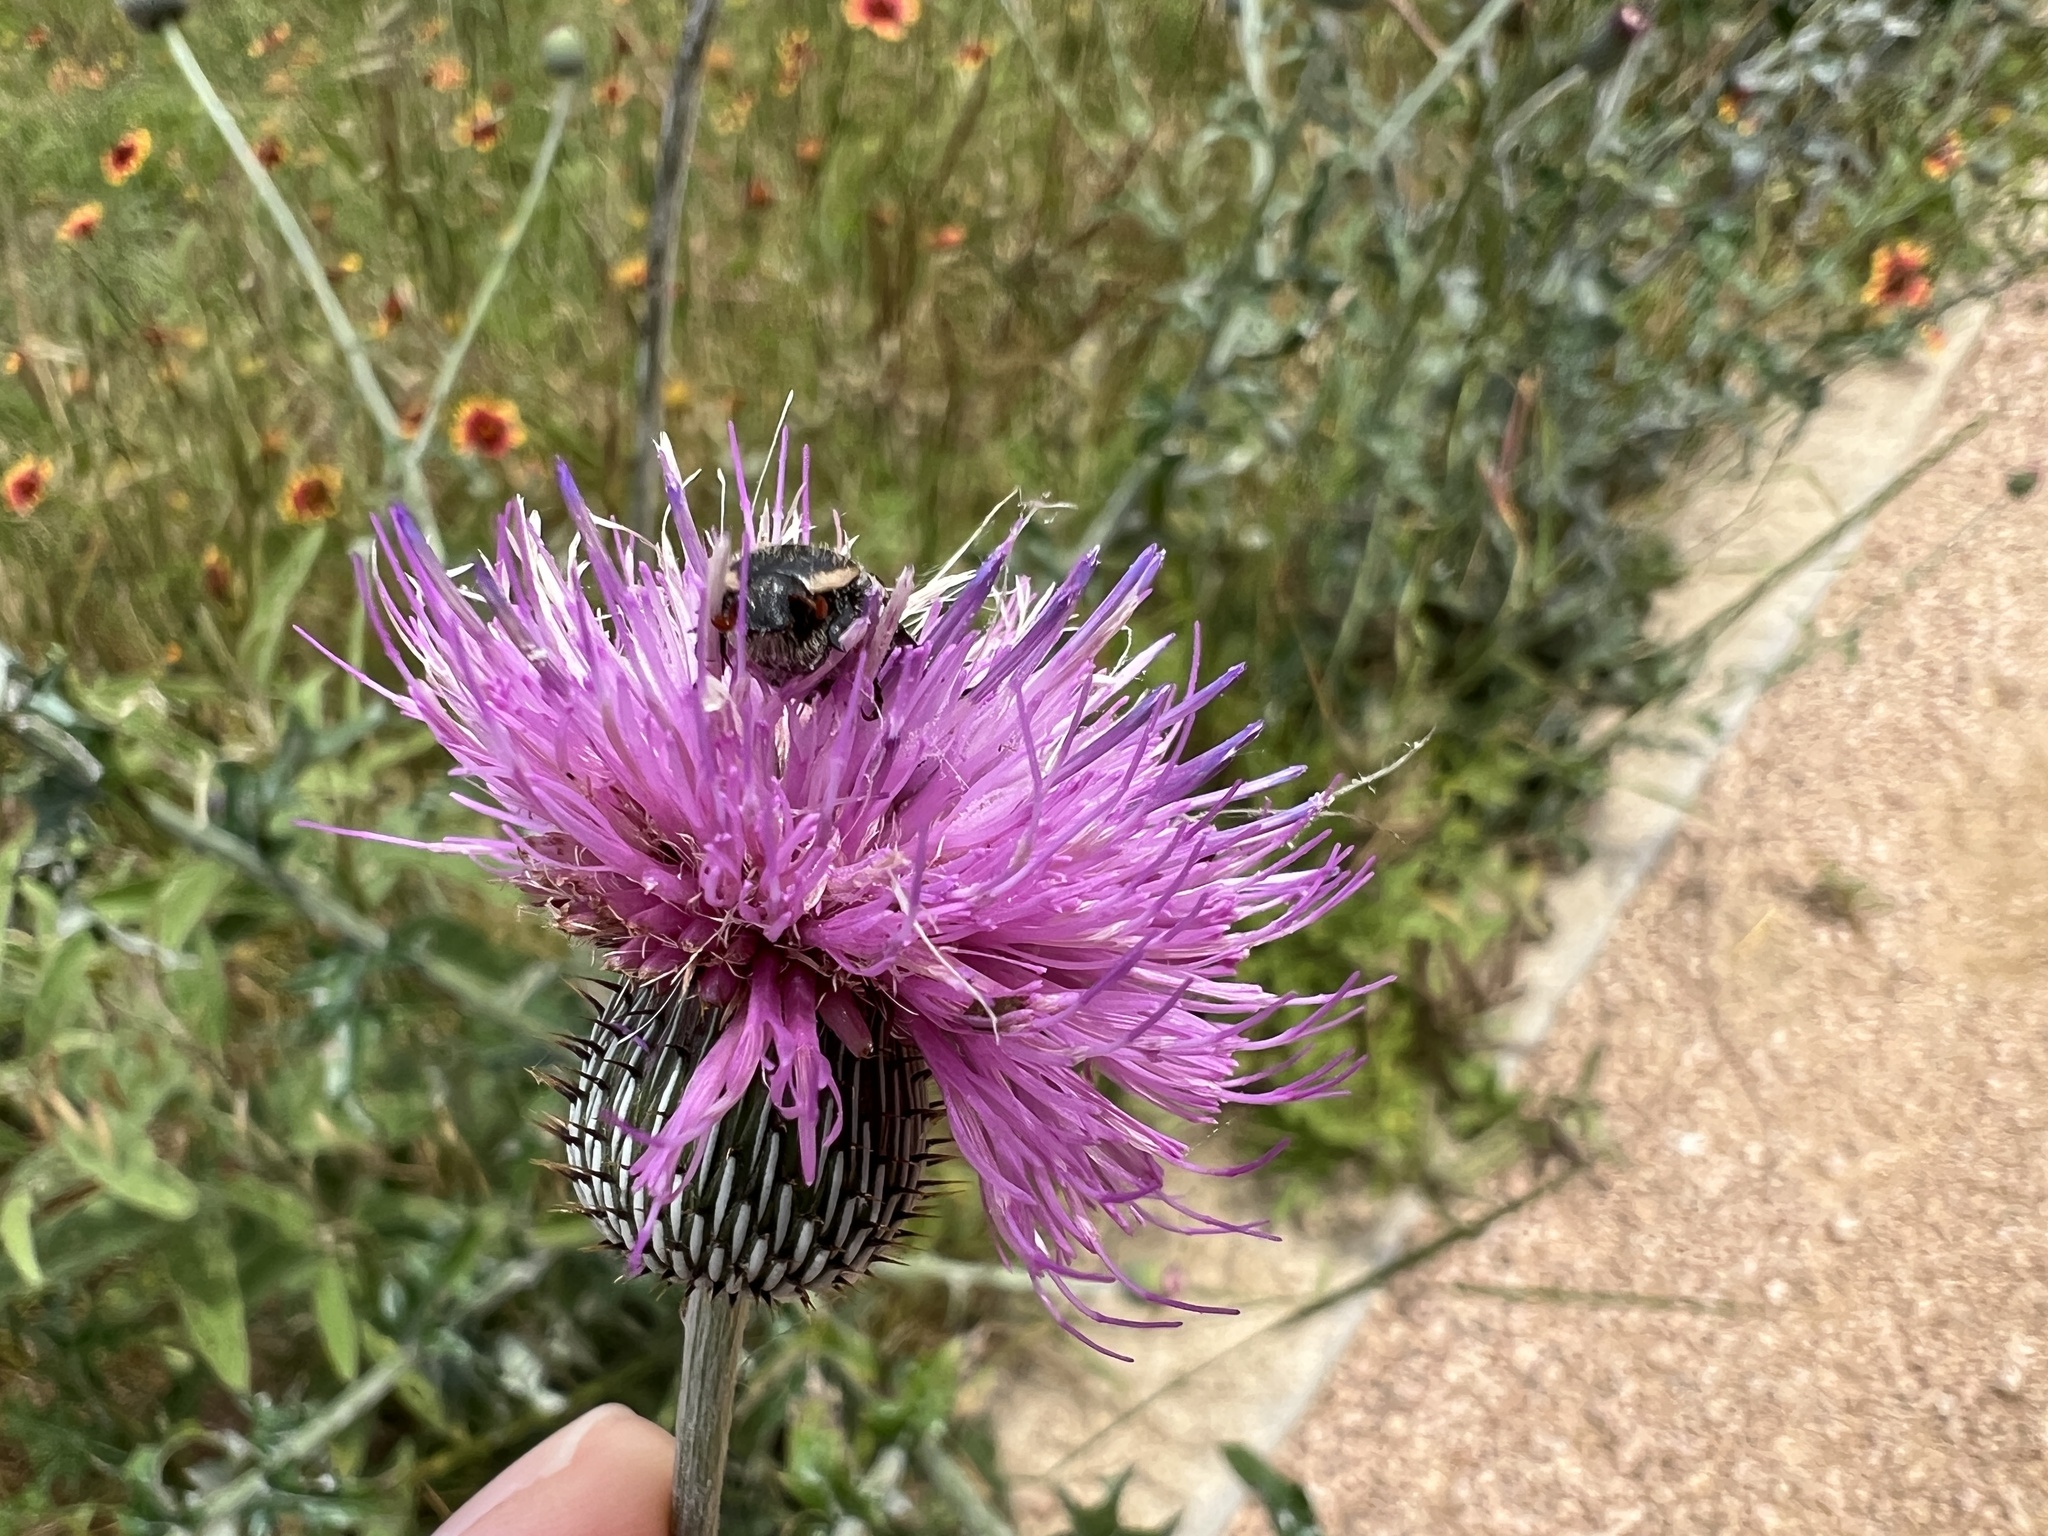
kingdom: Animalia
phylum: Arthropoda
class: Insecta
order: Coleoptera
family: Scarabaeidae
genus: Euphoria
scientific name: Euphoria kernii
